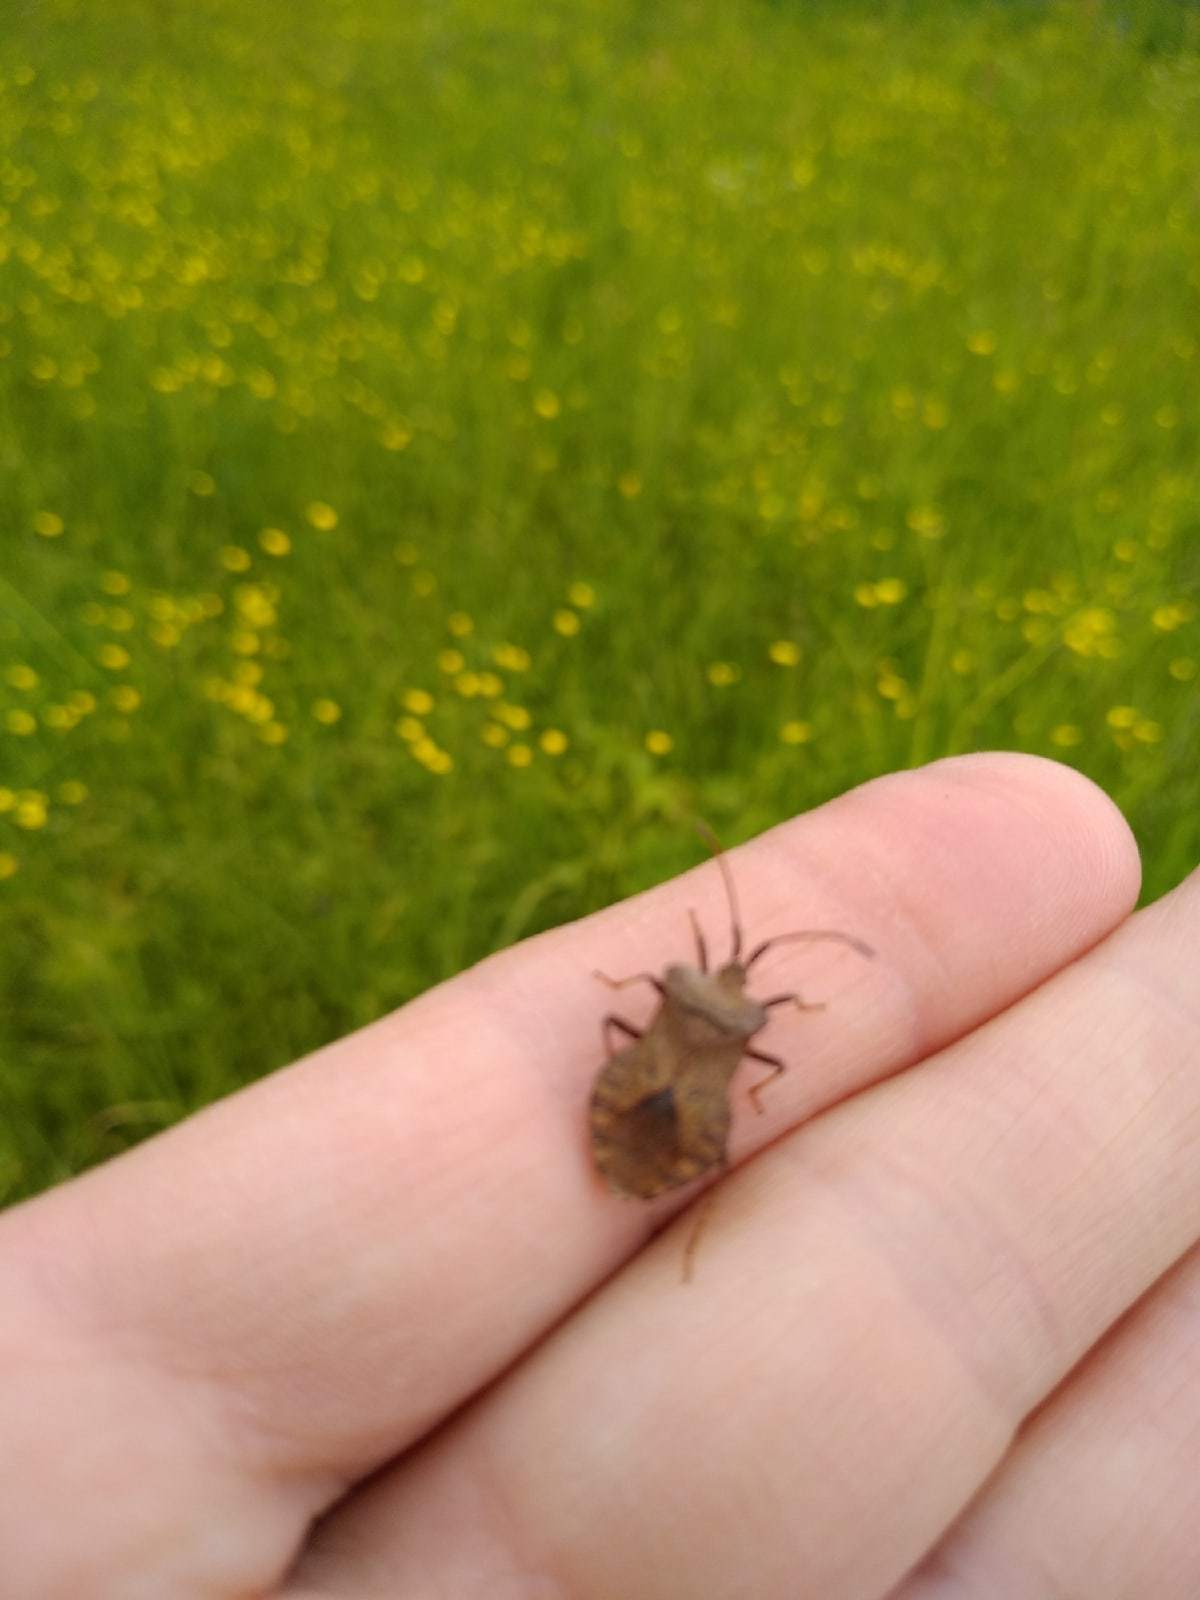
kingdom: Animalia
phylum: Arthropoda
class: Insecta
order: Hemiptera
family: Coreidae
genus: Coreus
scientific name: Coreus marginatus
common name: Dock bug
